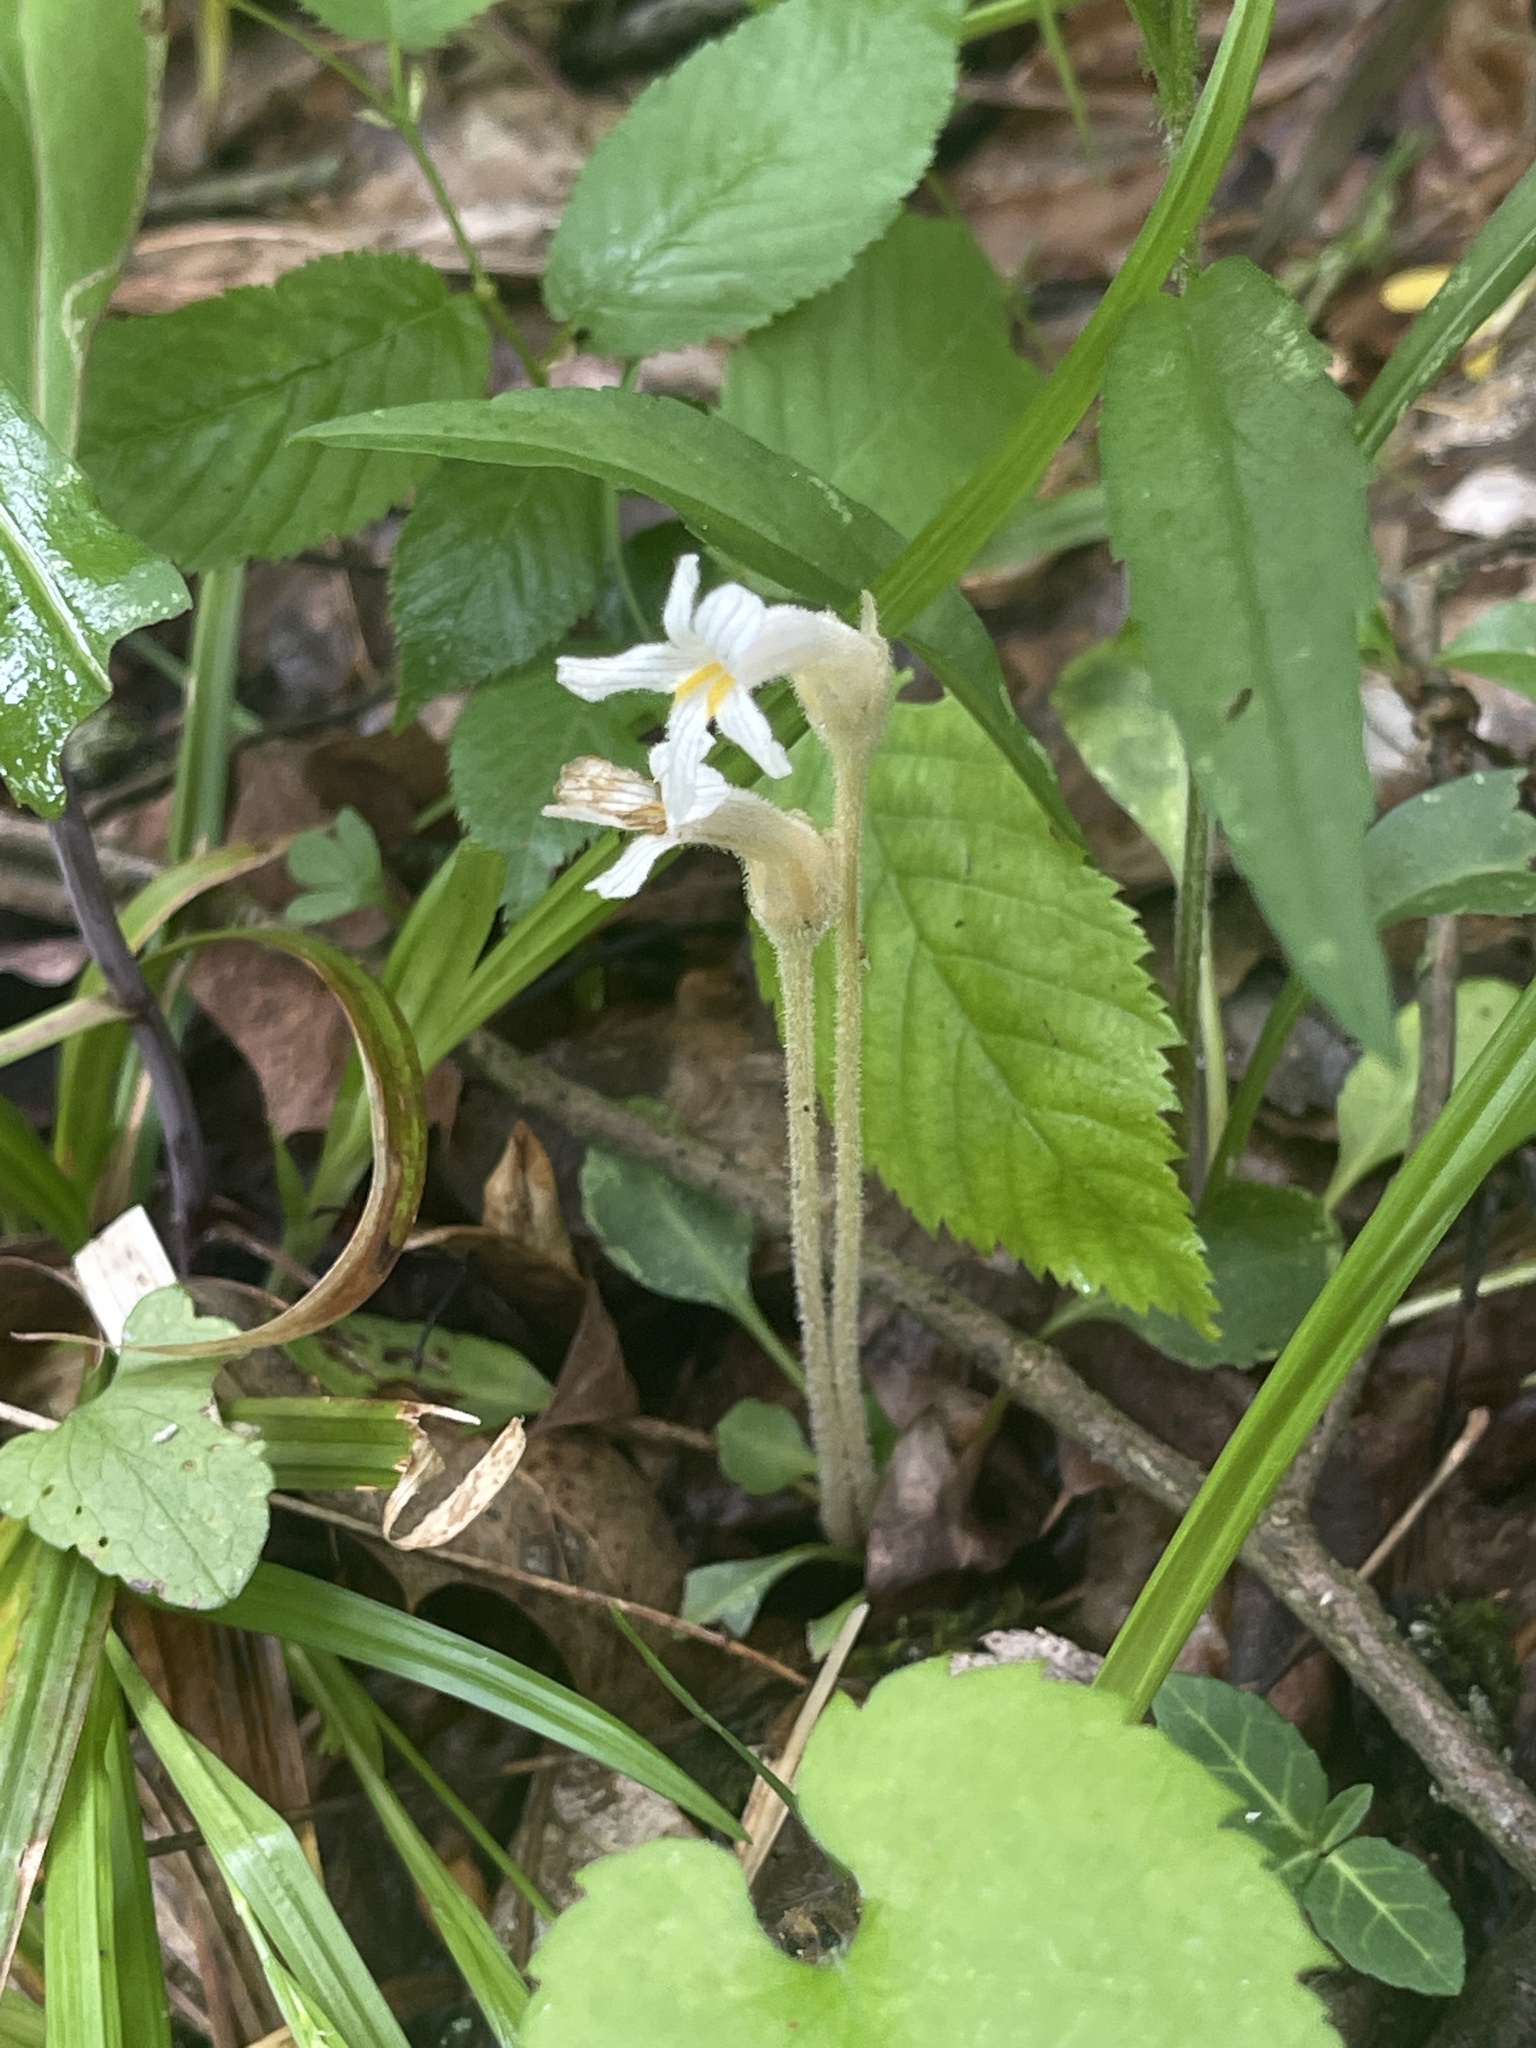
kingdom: Plantae
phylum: Tracheophyta
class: Magnoliopsida
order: Lamiales
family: Orobanchaceae
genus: Aphyllon
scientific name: Aphyllon uniflorum
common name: One-flowered broomrape
